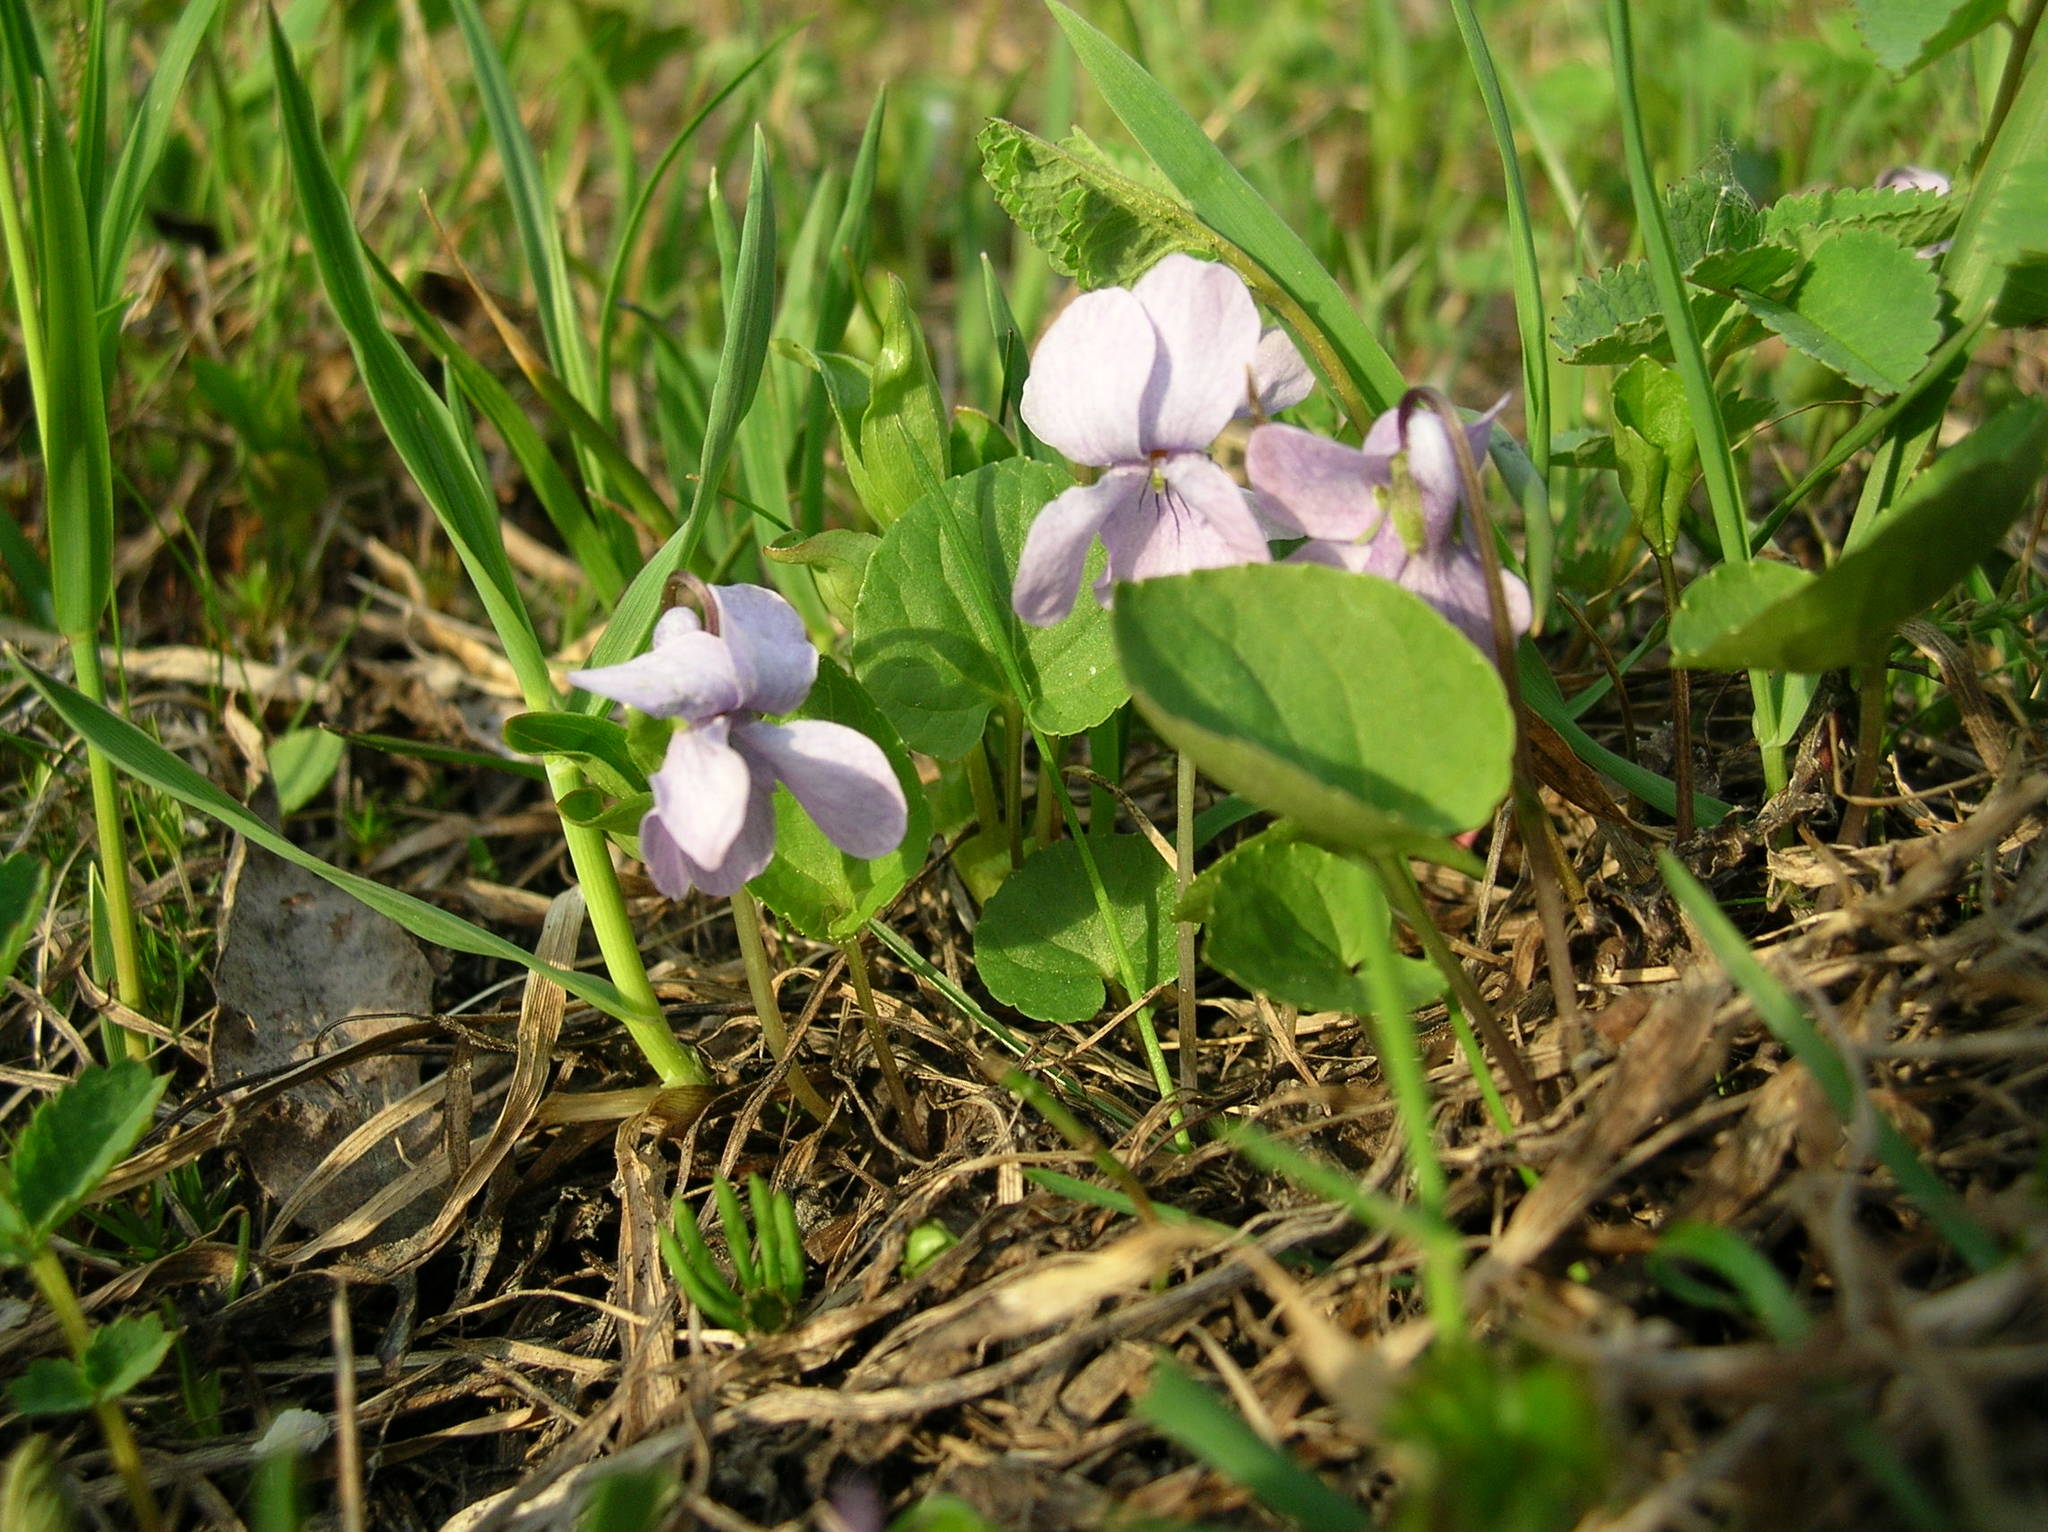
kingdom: Plantae
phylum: Tracheophyta
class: Magnoliopsida
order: Malpighiales
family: Violaceae
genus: Viola
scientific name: Viola epipsila
